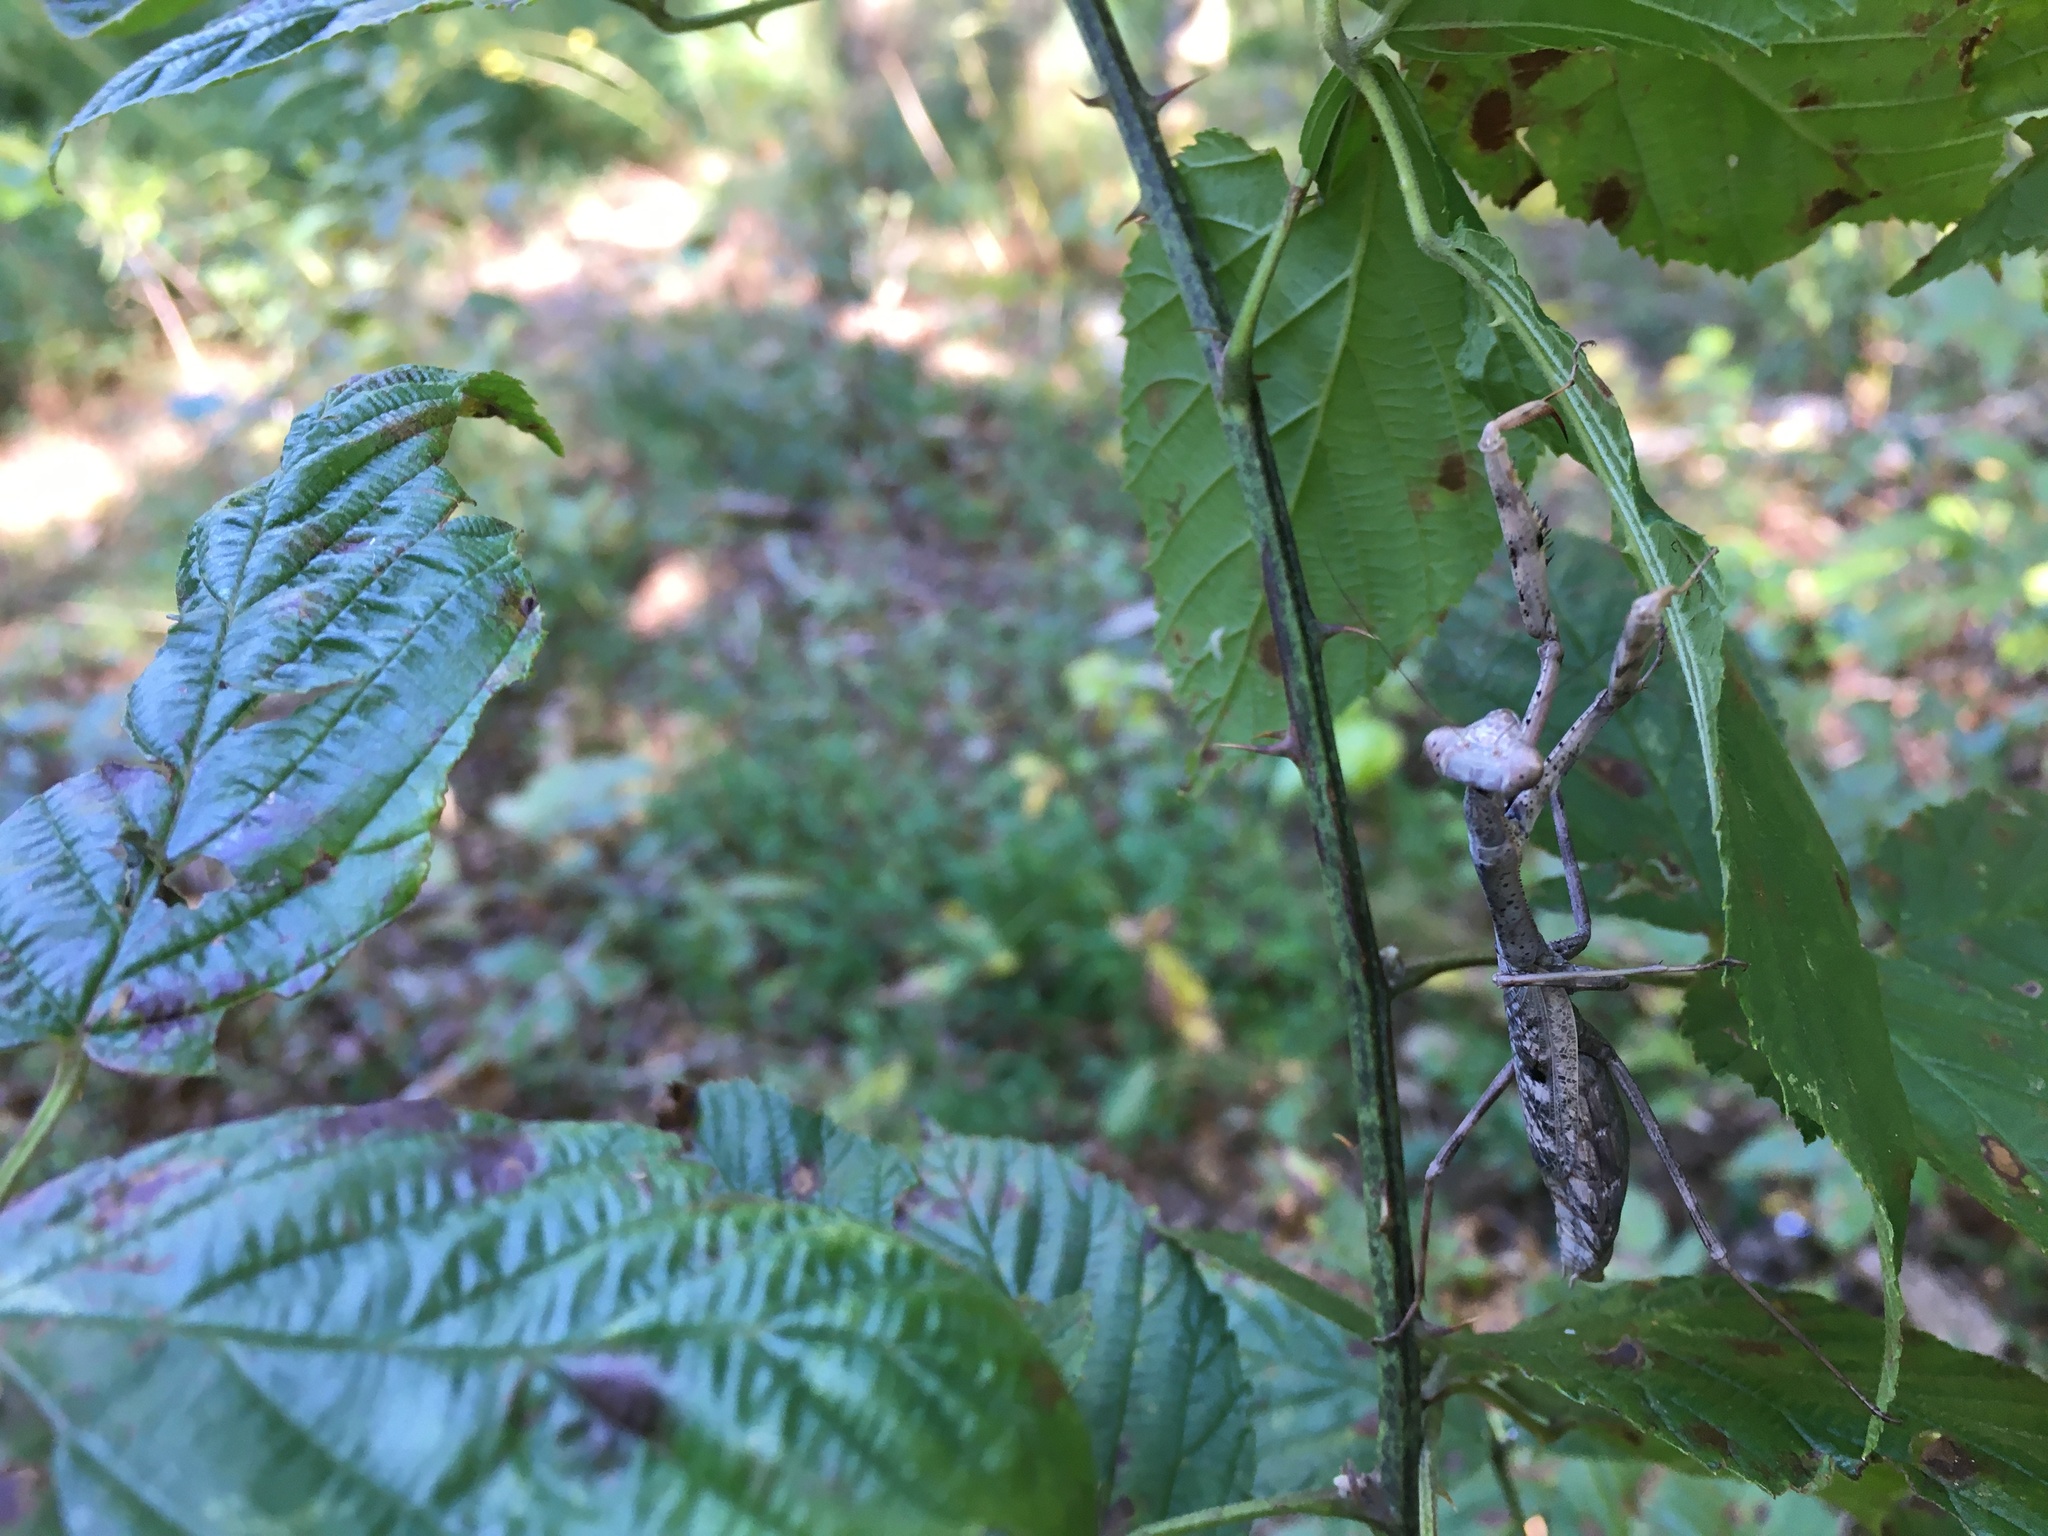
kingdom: Animalia
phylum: Arthropoda
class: Insecta
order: Mantodea
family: Mantidae
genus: Stagmomantis
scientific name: Stagmomantis carolina
